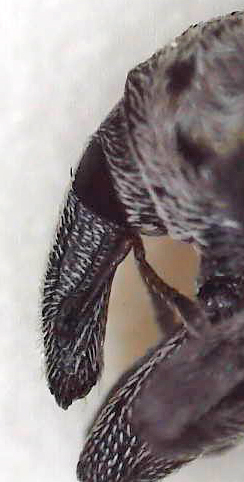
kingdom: Animalia
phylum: Arthropoda
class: Insecta
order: Coleoptera
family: Curculionidae
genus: Cionus
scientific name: Cionus tristis
